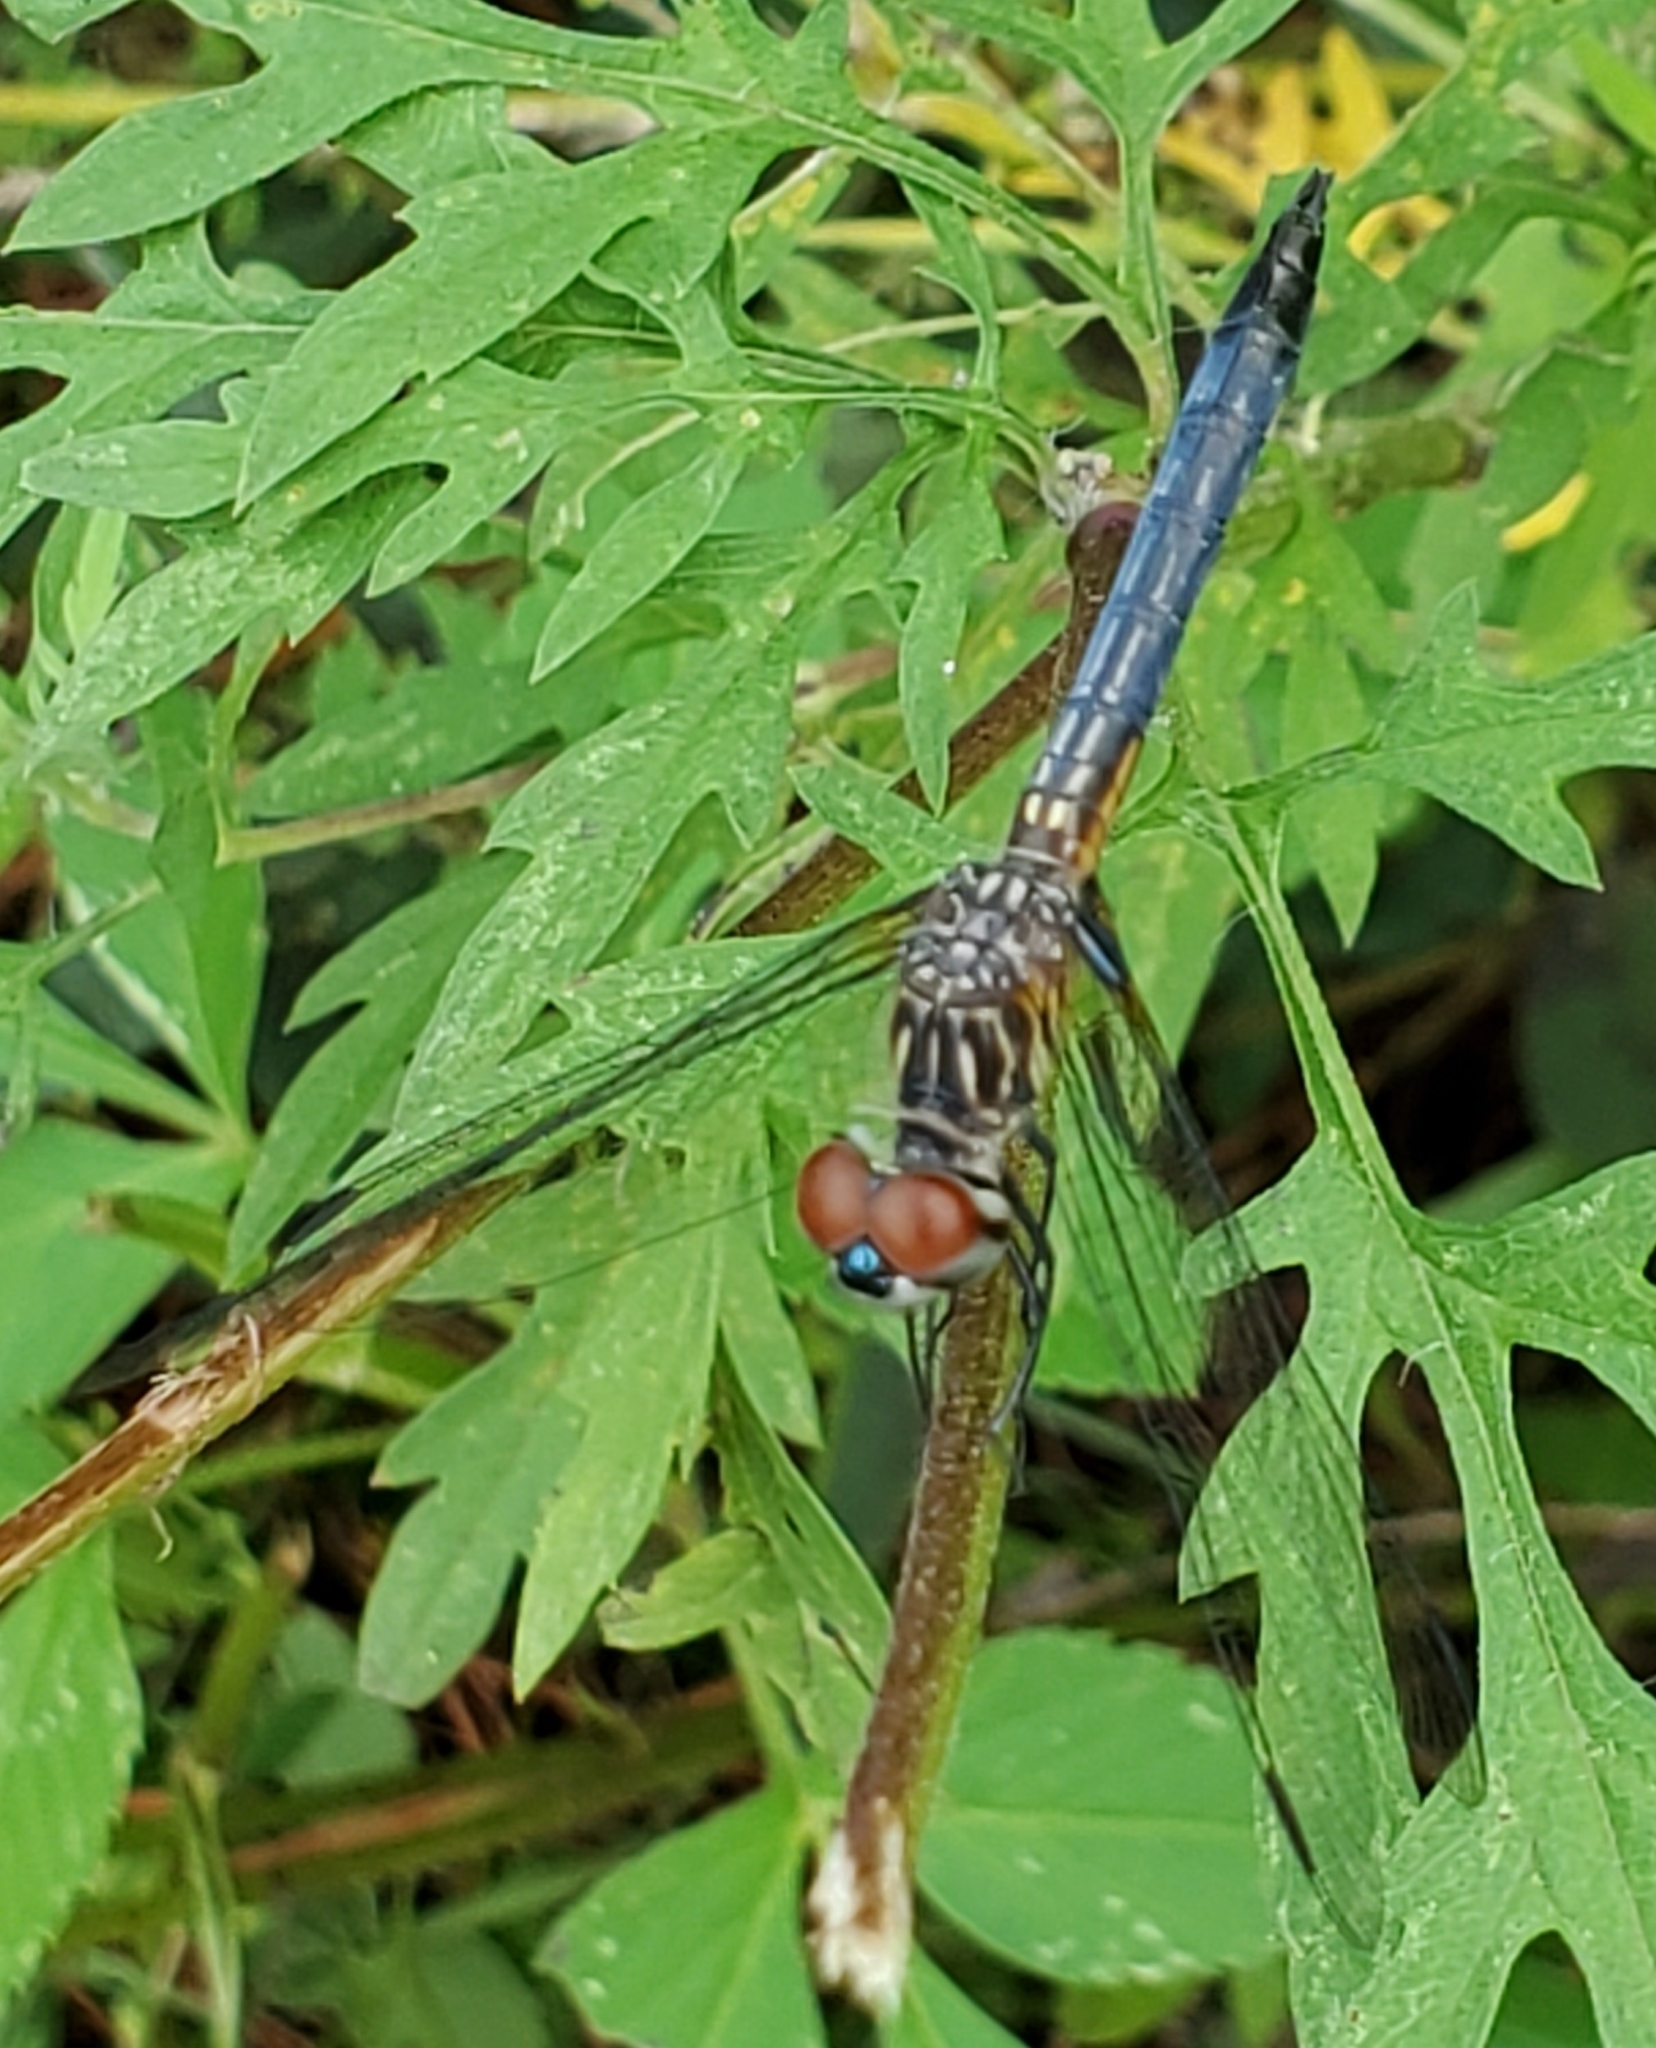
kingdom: Animalia
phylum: Arthropoda
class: Insecta
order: Odonata
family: Libellulidae
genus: Pachydiplax
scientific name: Pachydiplax longipennis
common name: Blue dasher
